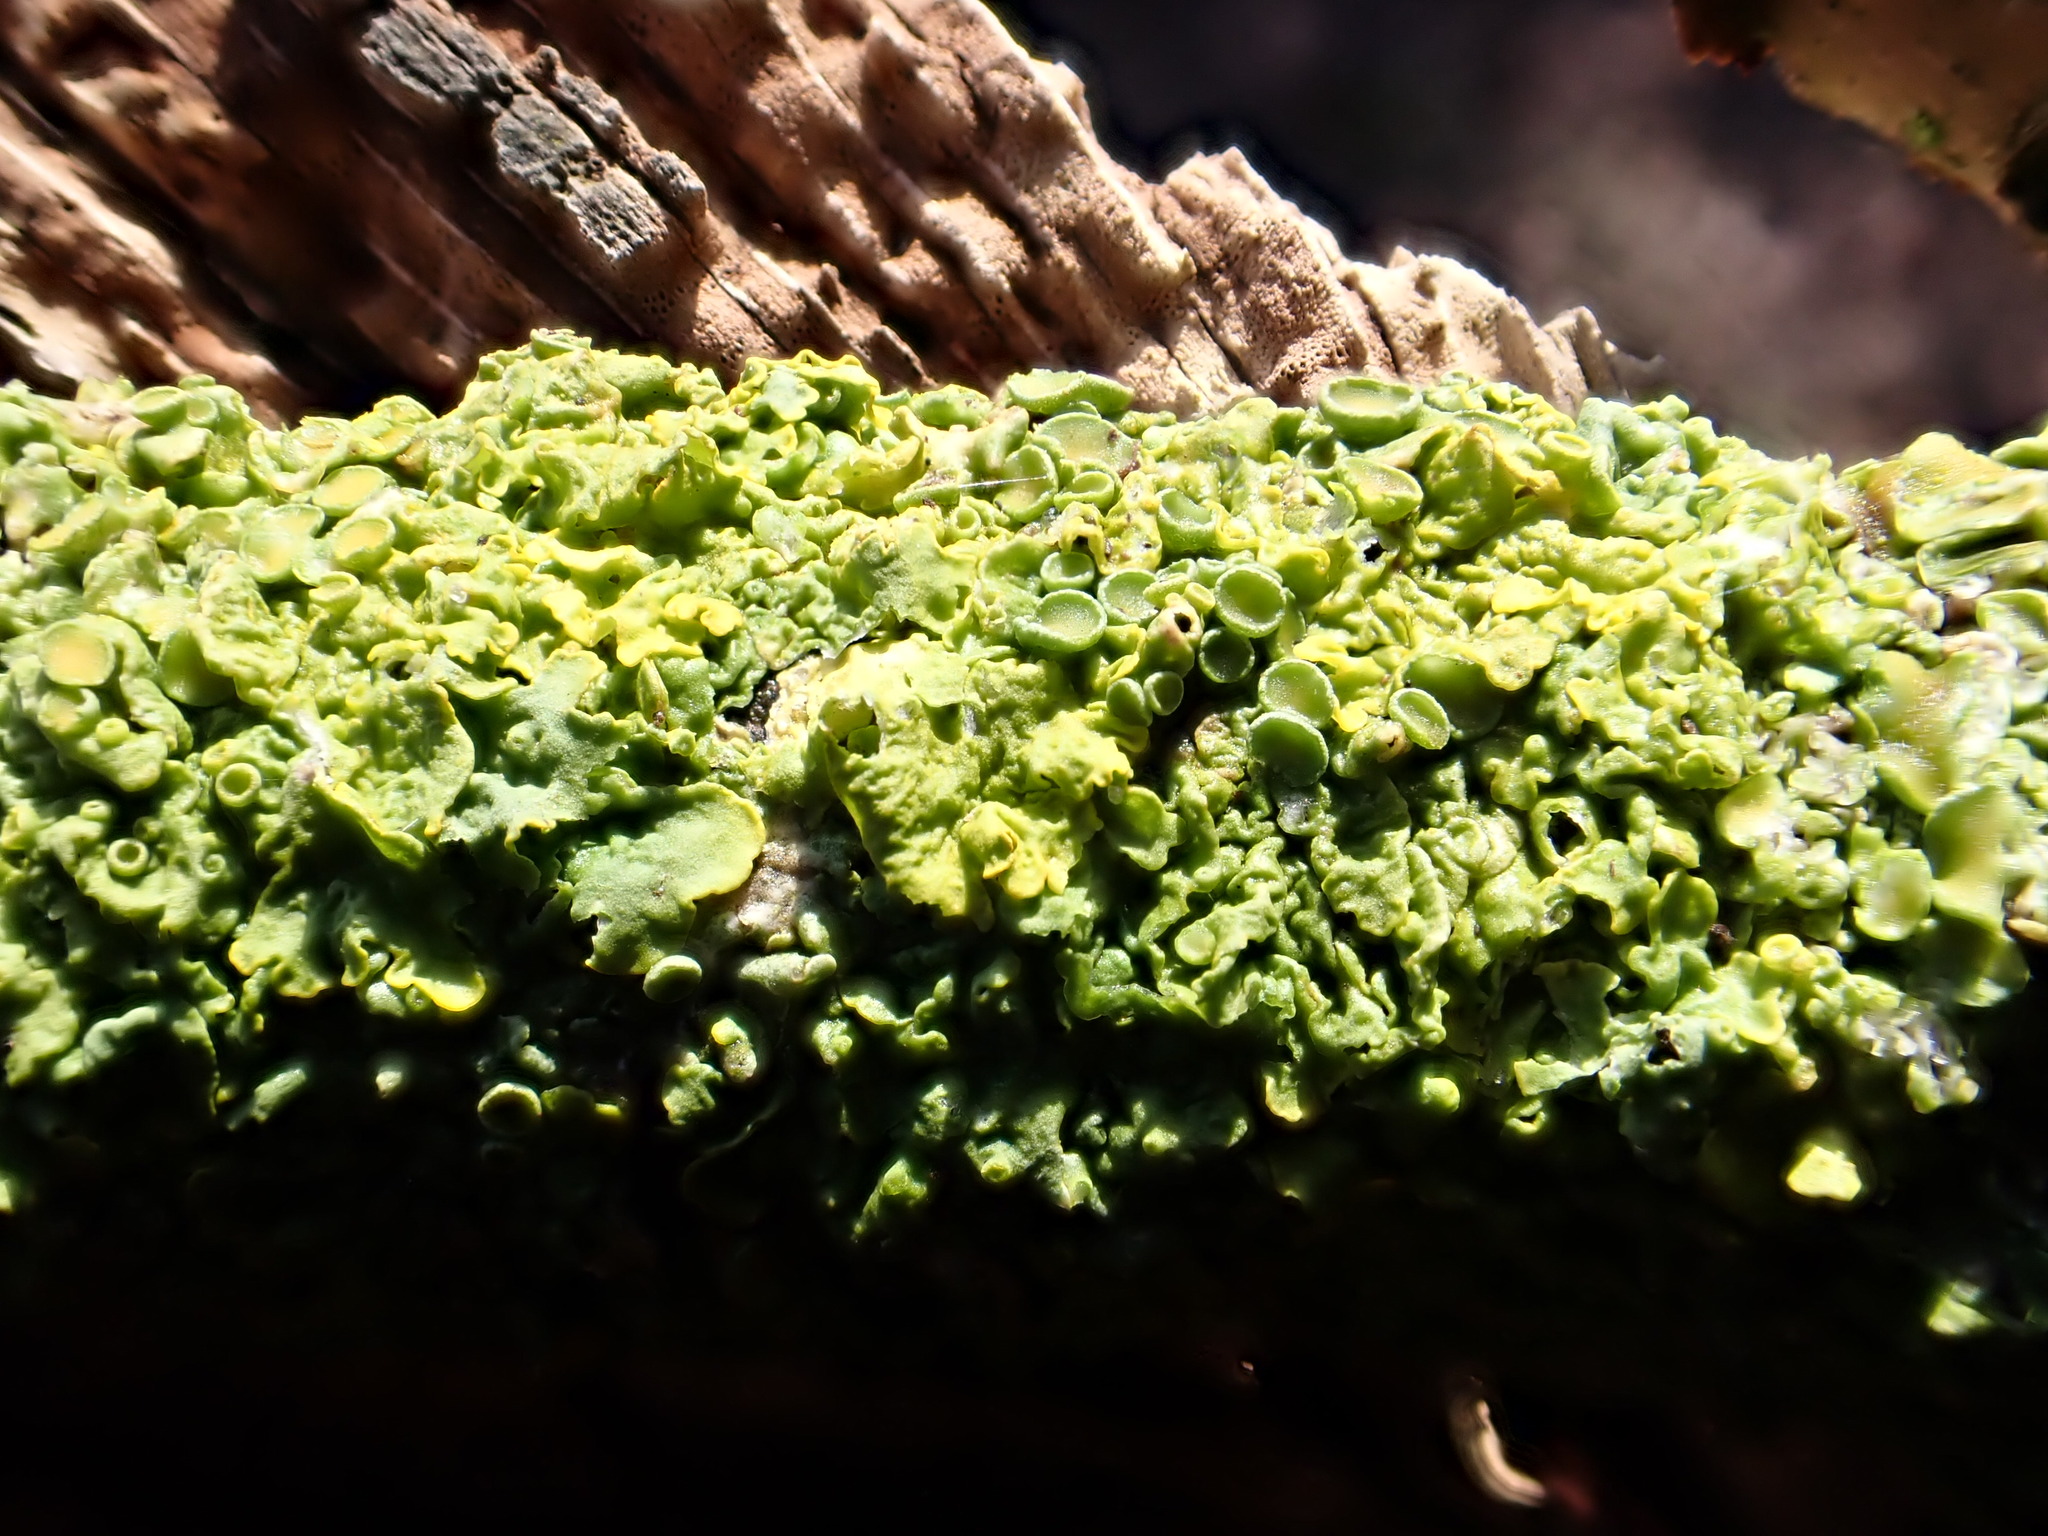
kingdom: Fungi
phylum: Ascomycota
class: Lecanoromycetes
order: Teloschistales
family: Teloschistaceae
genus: Xanthoria
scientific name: Xanthoria parietina
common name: Common orange lichen
